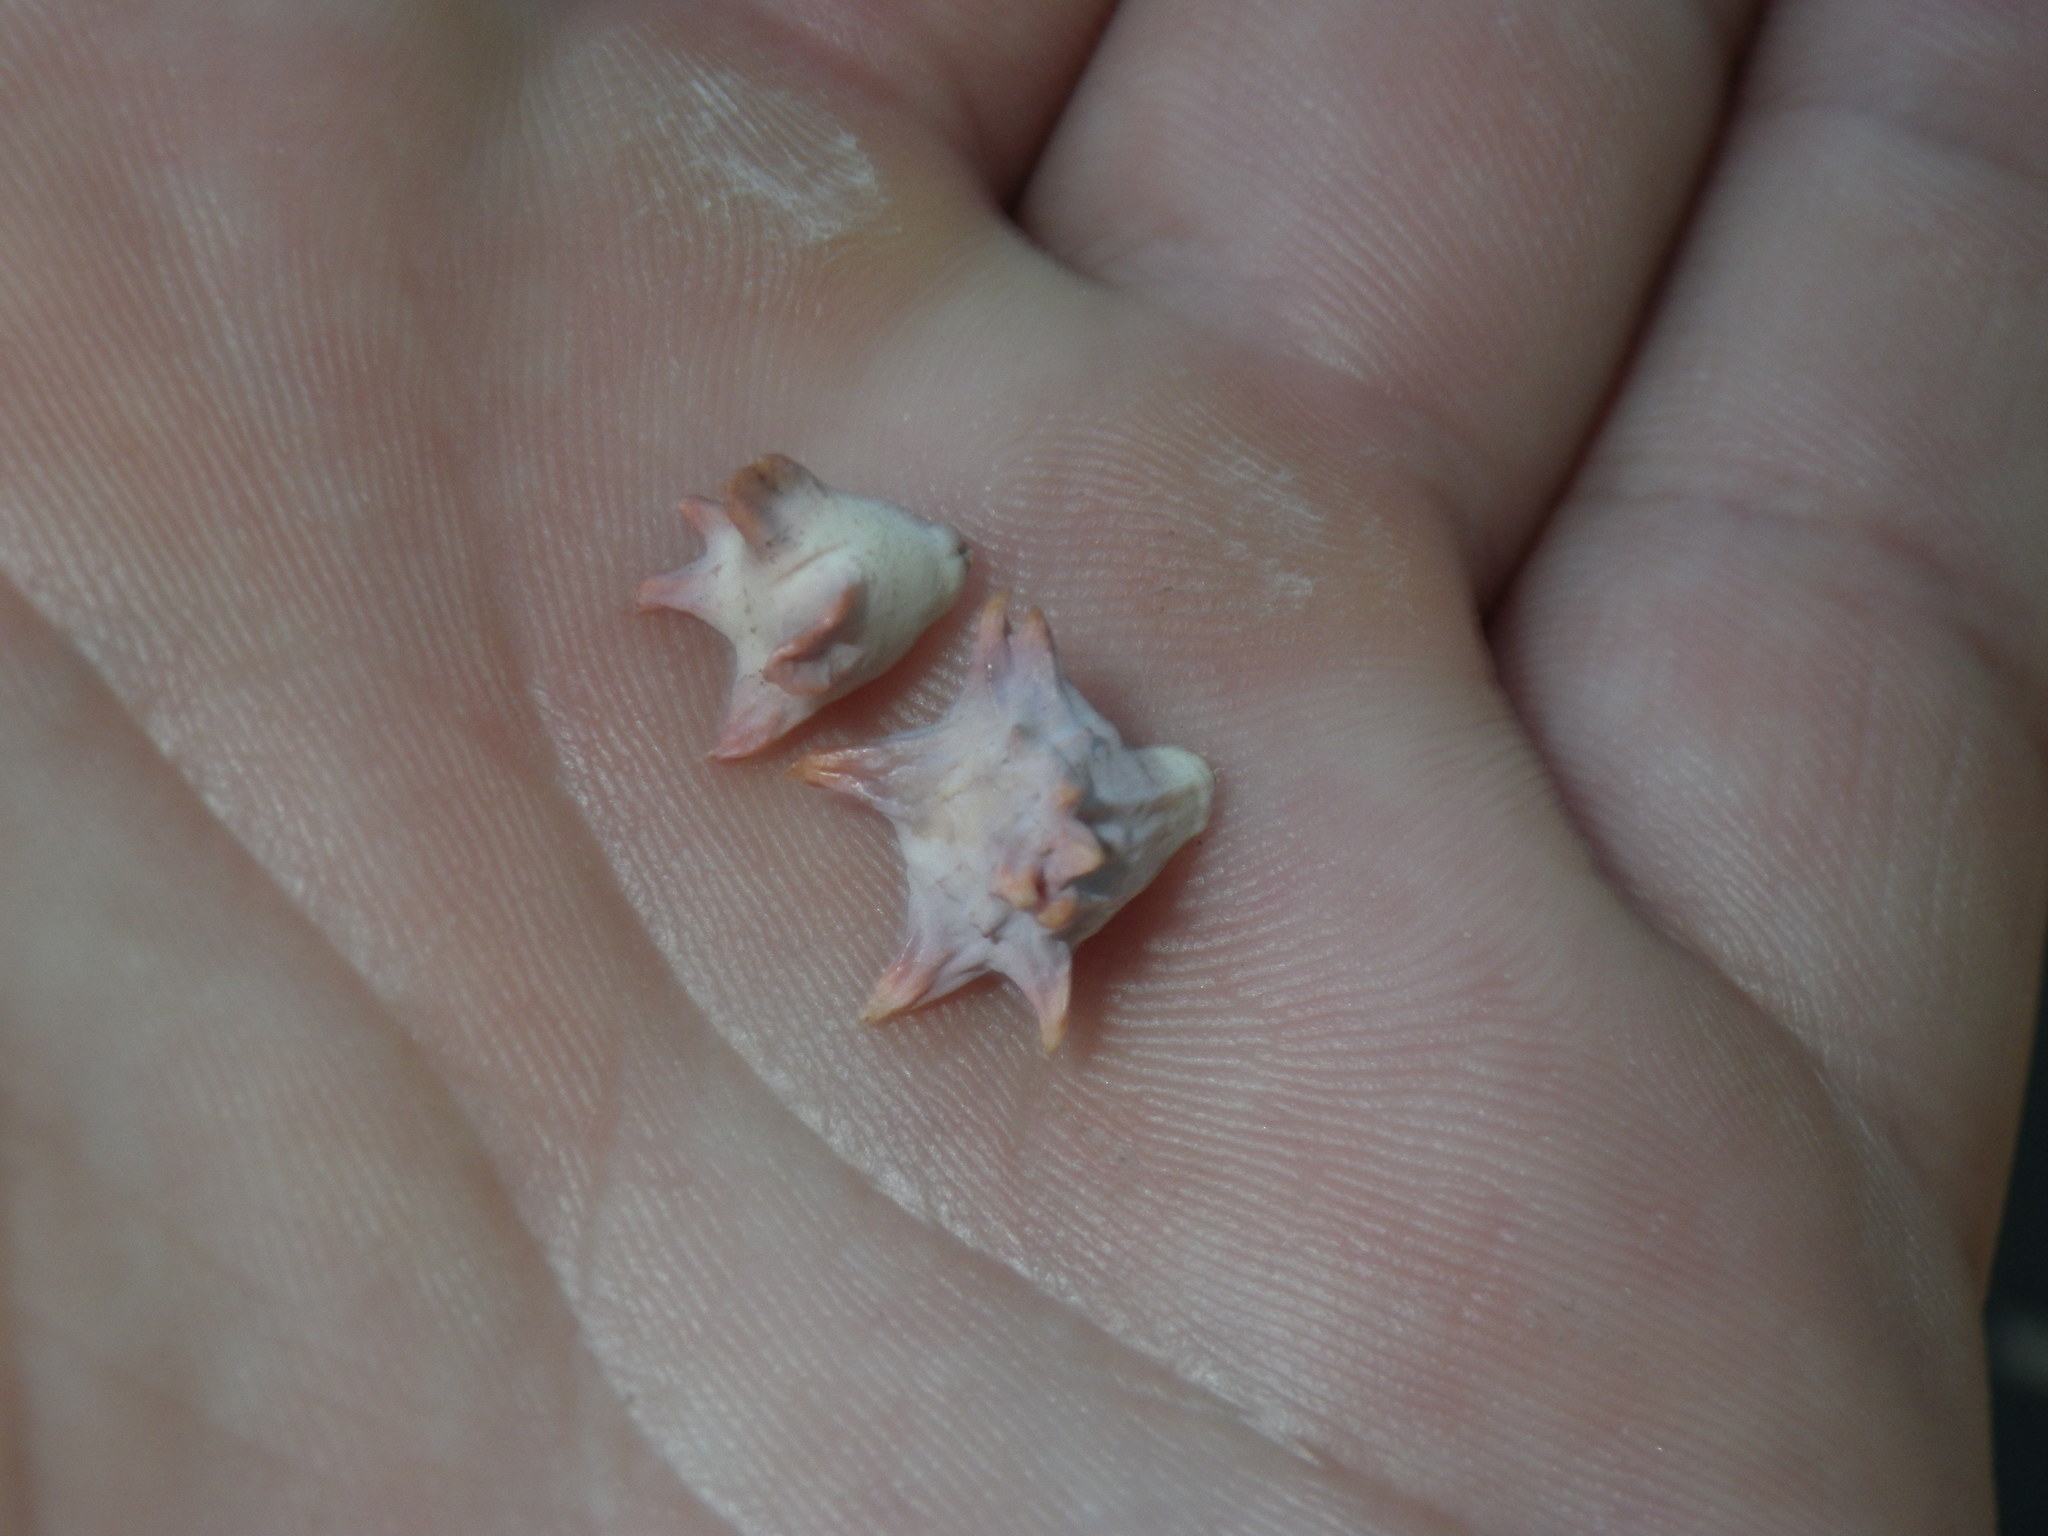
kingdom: Animalia
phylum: Arthropoda
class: Insecta
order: Hymenoptera
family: Cynipidae
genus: Cynips
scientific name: Cynips douglasi
